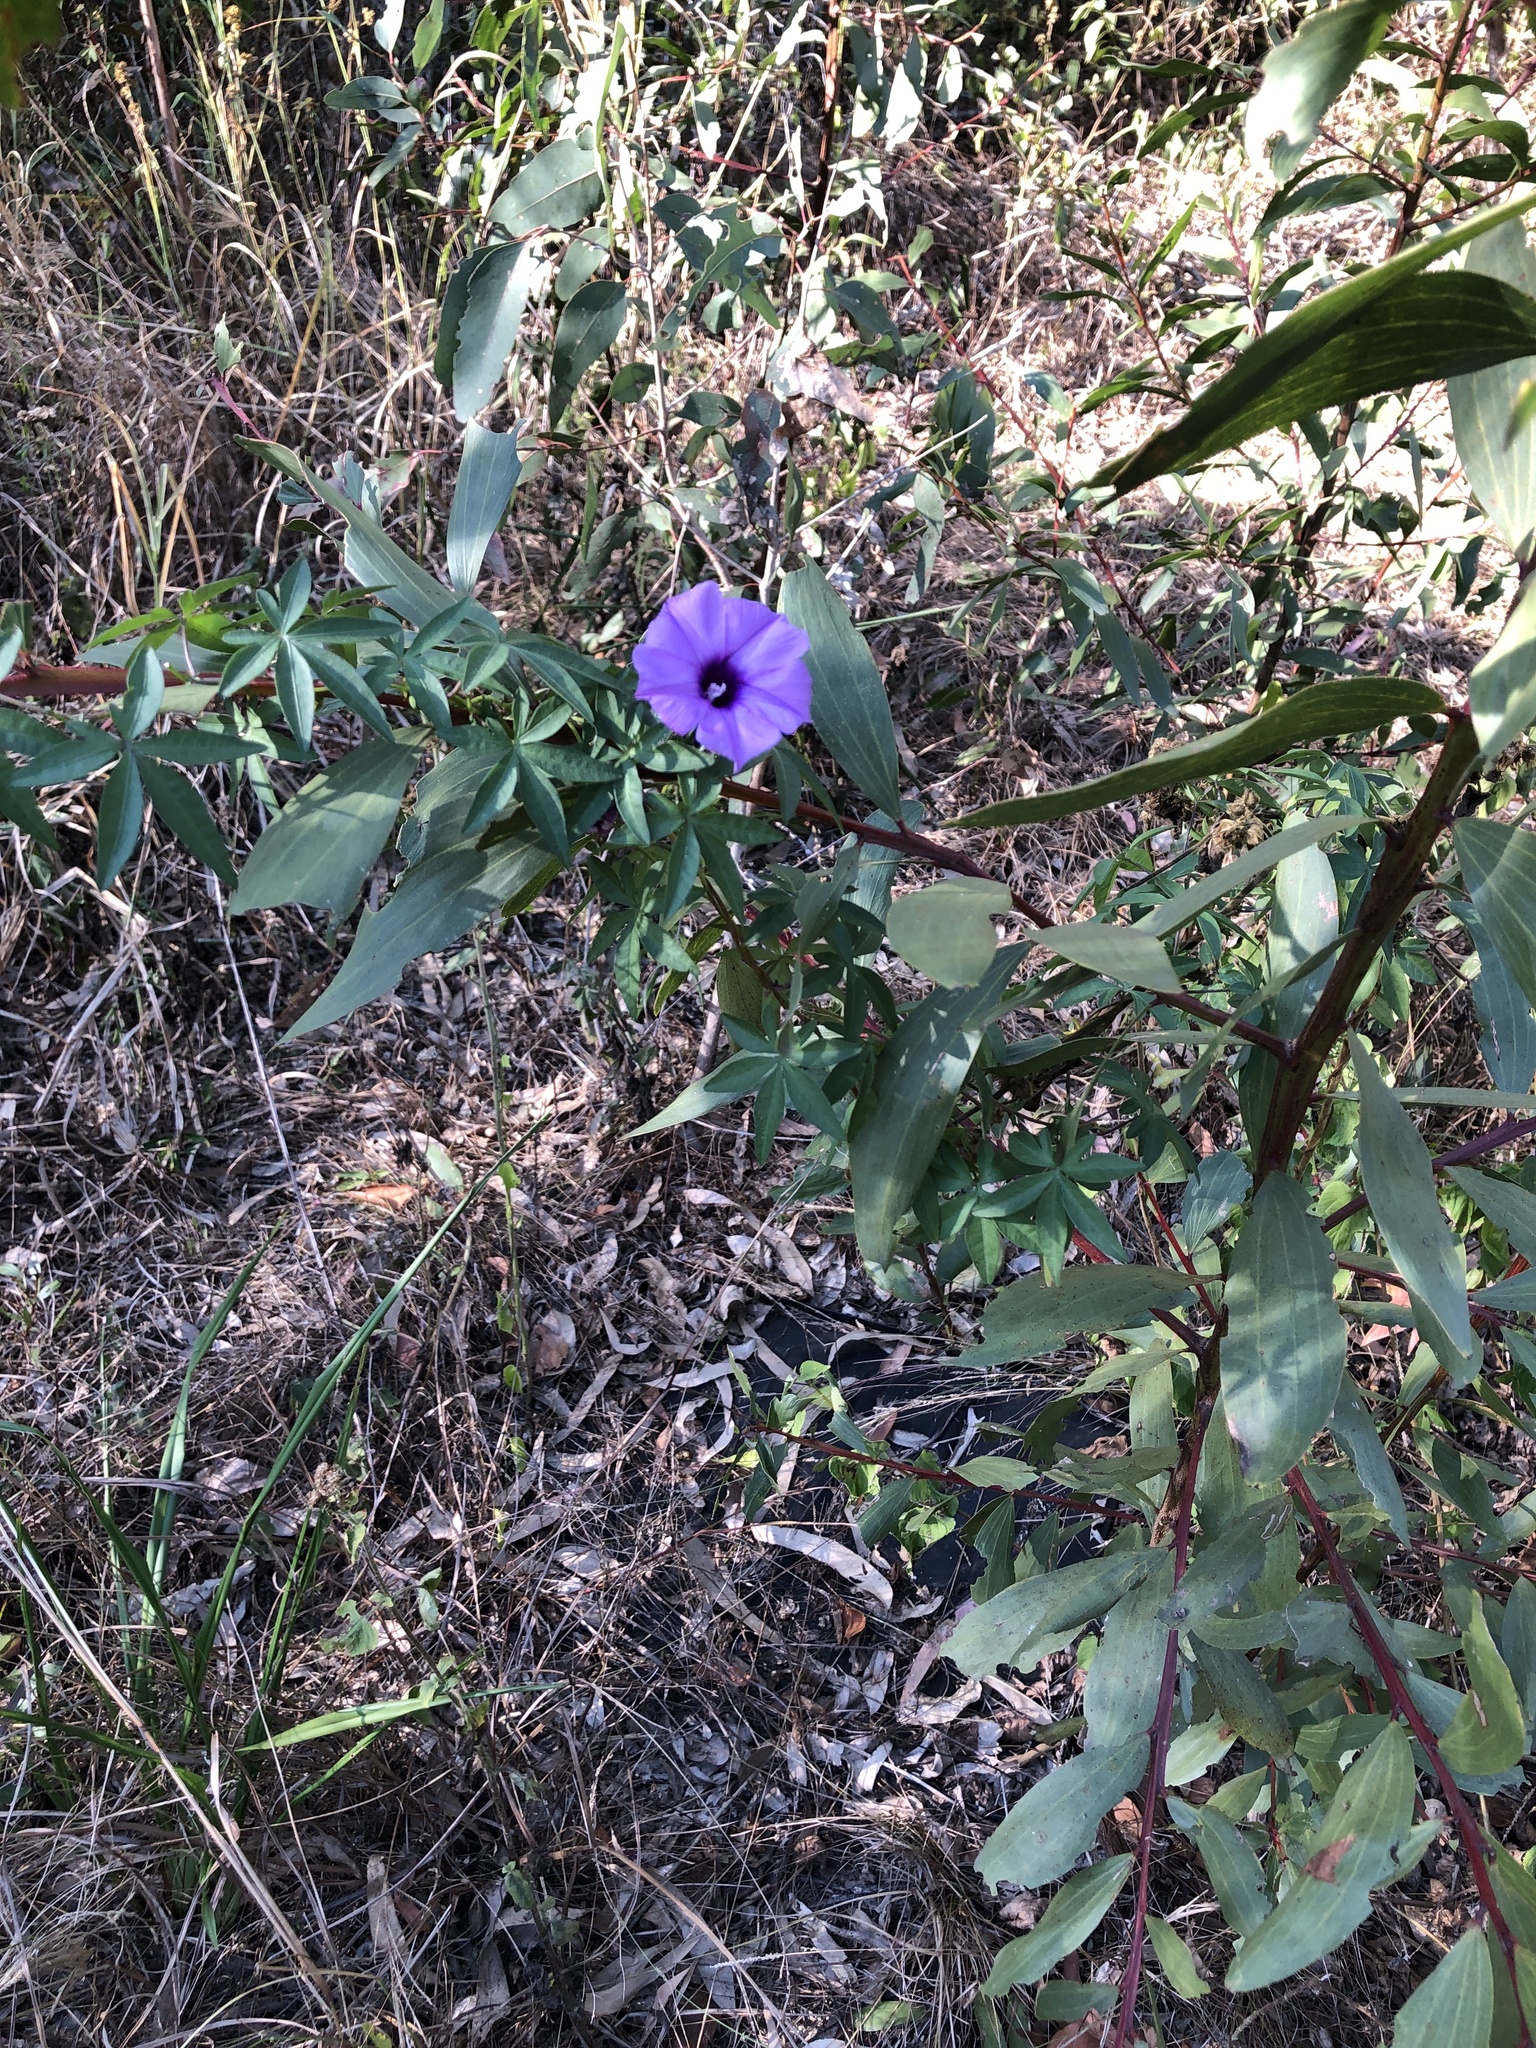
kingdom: Plantae
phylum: Tracheophyta
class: Magnoliopsida
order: Solanales
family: Convolvulaceae
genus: Ipomoea
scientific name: Ipomoea cairica
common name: Mile a minute vine
